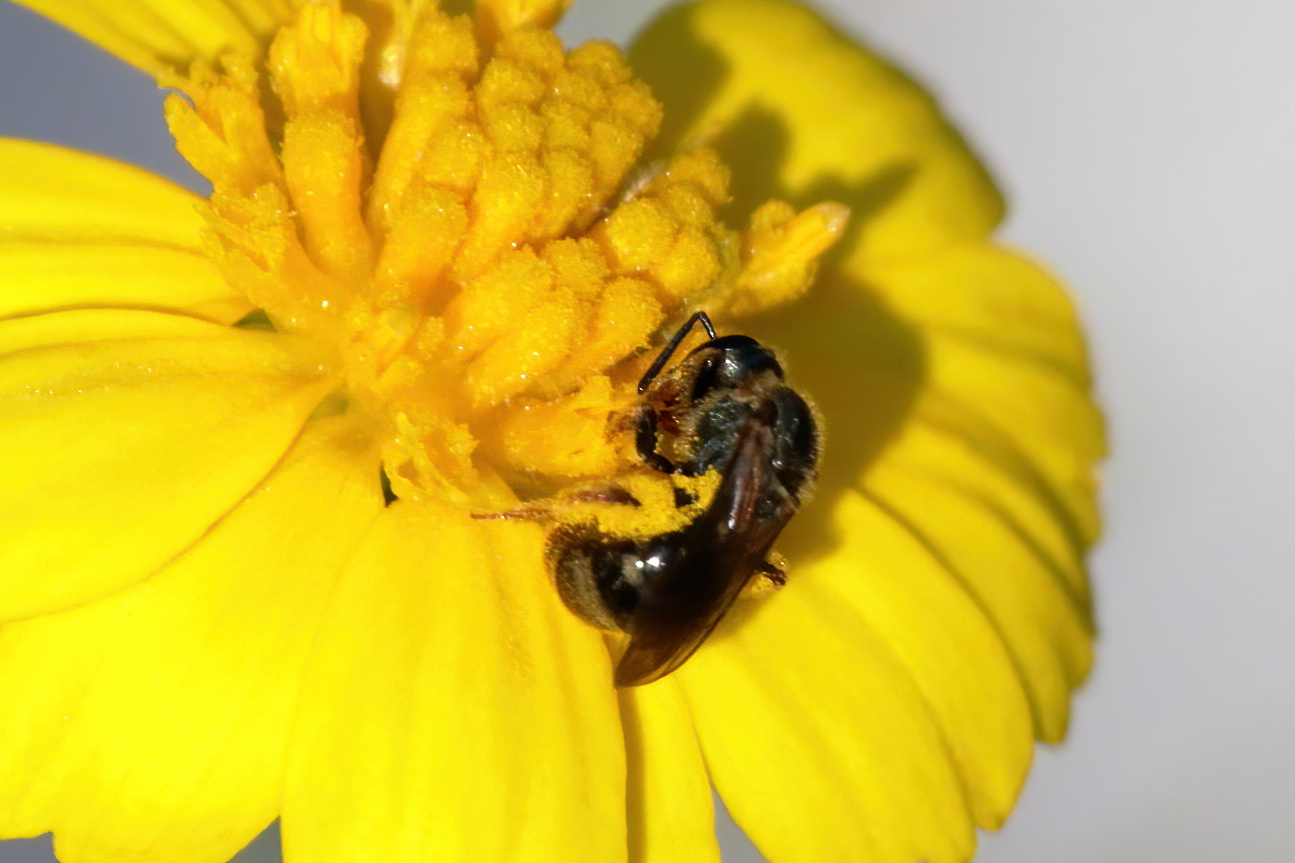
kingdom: Animalia
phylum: Arthropoda
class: Insecta
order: Hymenoptera
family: Halictidae
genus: Lasioglossum
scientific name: Lasioglossum reticulatum
